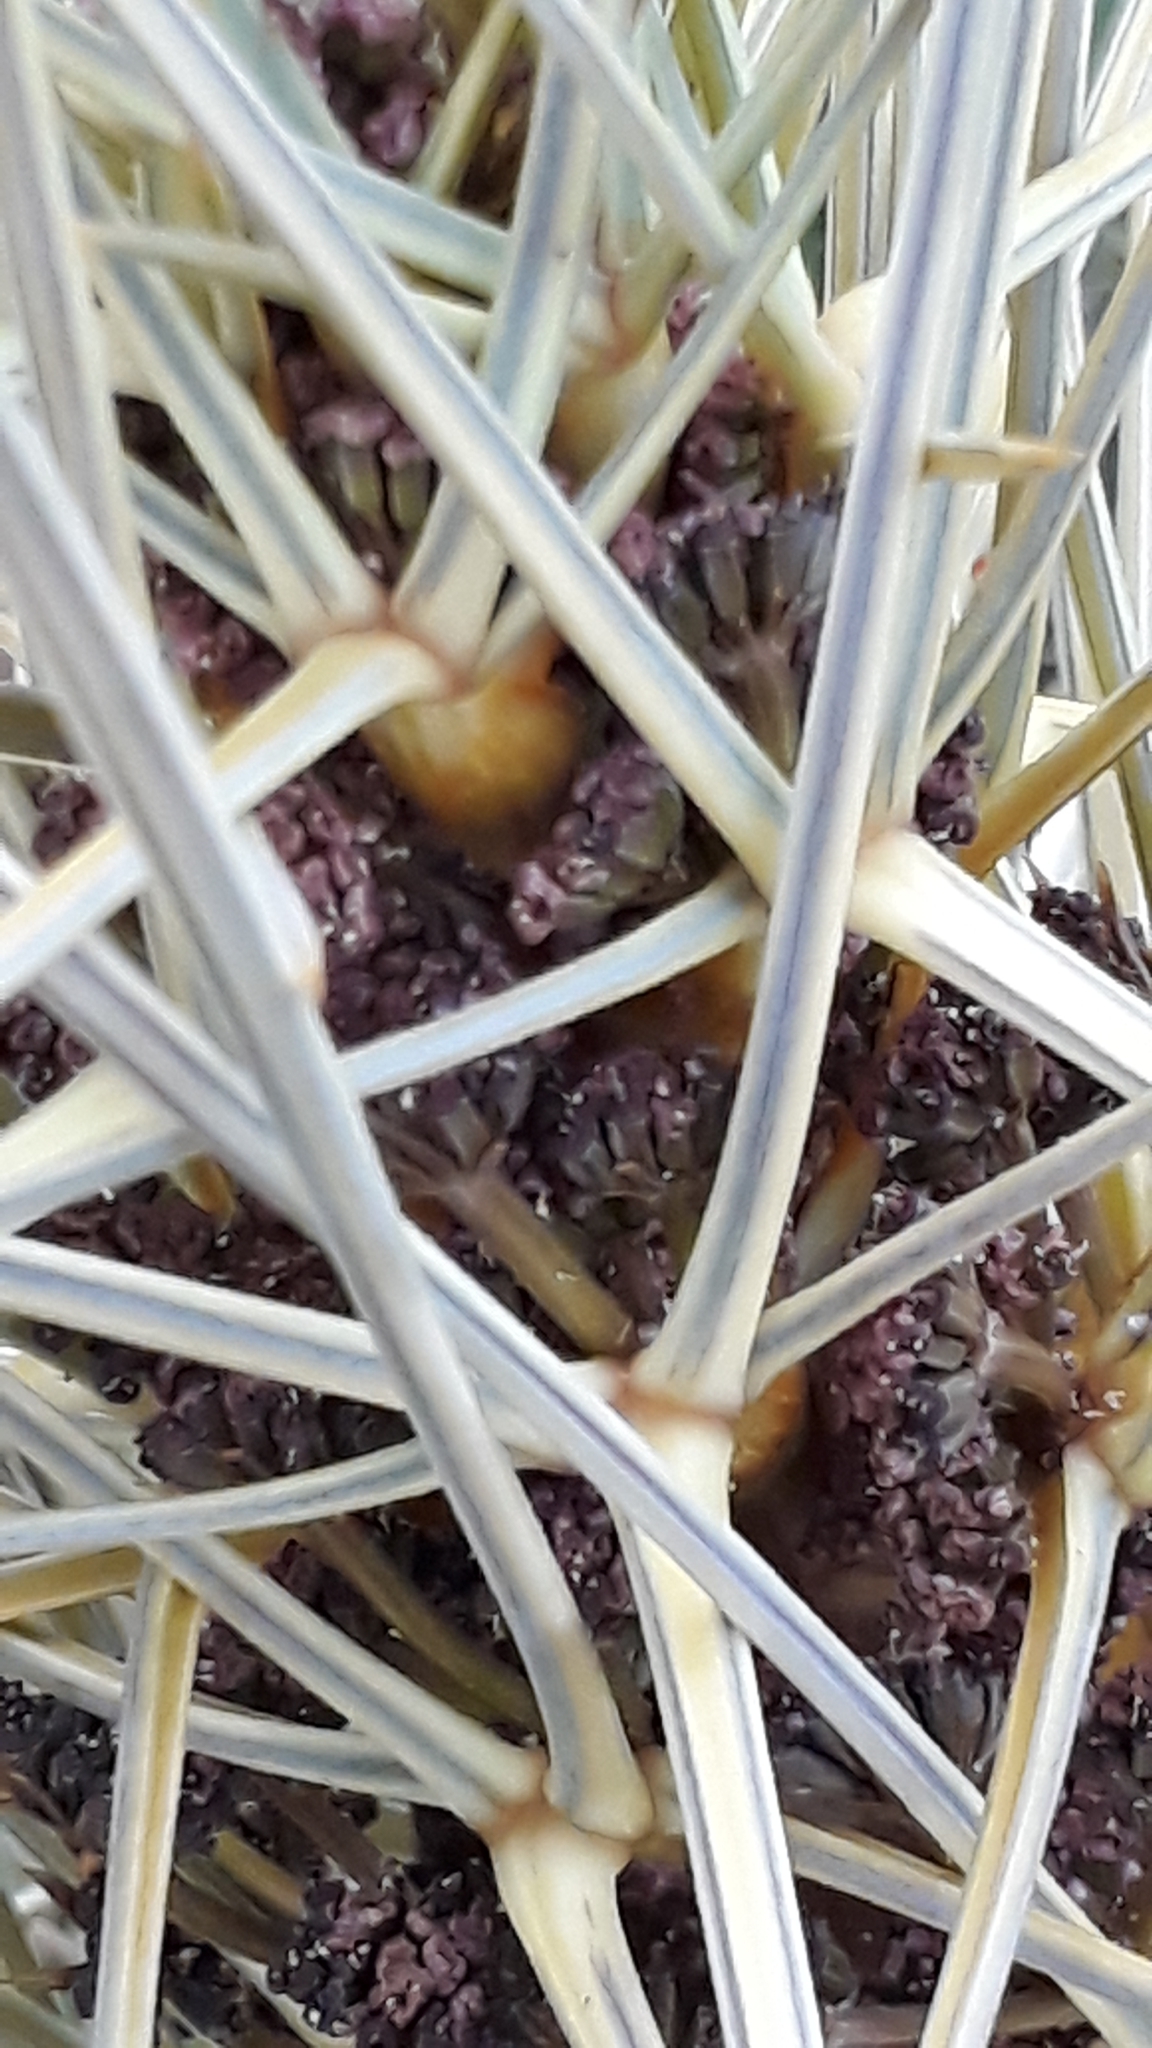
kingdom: Plantae
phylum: Tracheophyta
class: Magnoliopsida
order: Apiales
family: Apiaceae
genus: Aciphylla
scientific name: Aciphylla subflabellata
